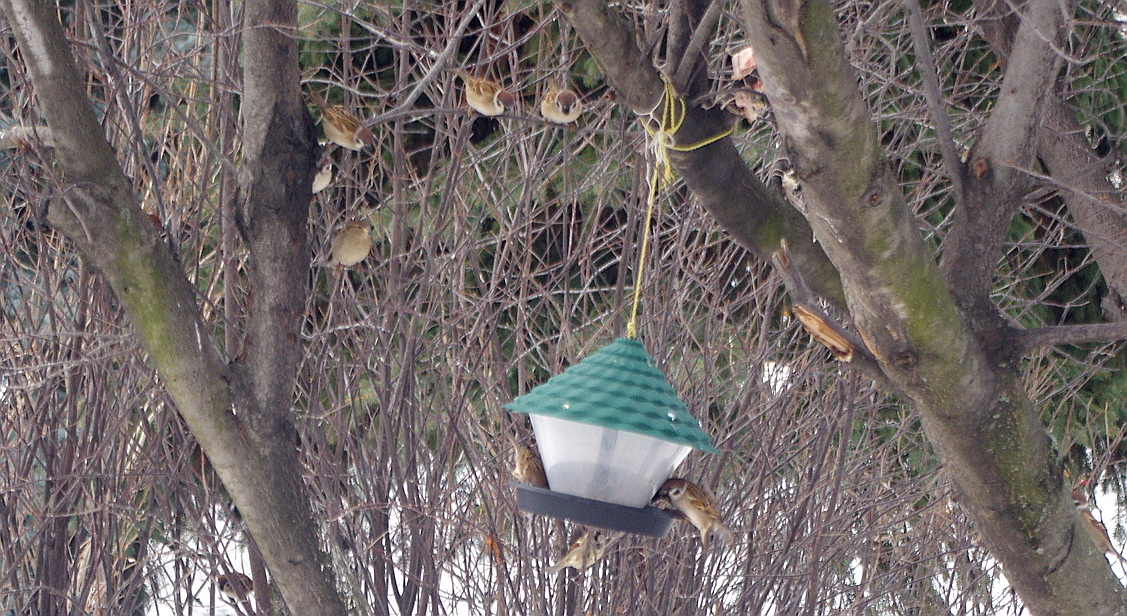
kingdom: Animalia
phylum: Chordata
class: Aves
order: Passeriformes
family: Passeridae
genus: Passer
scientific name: Passer montanus
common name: Eurasian tree sparrow
